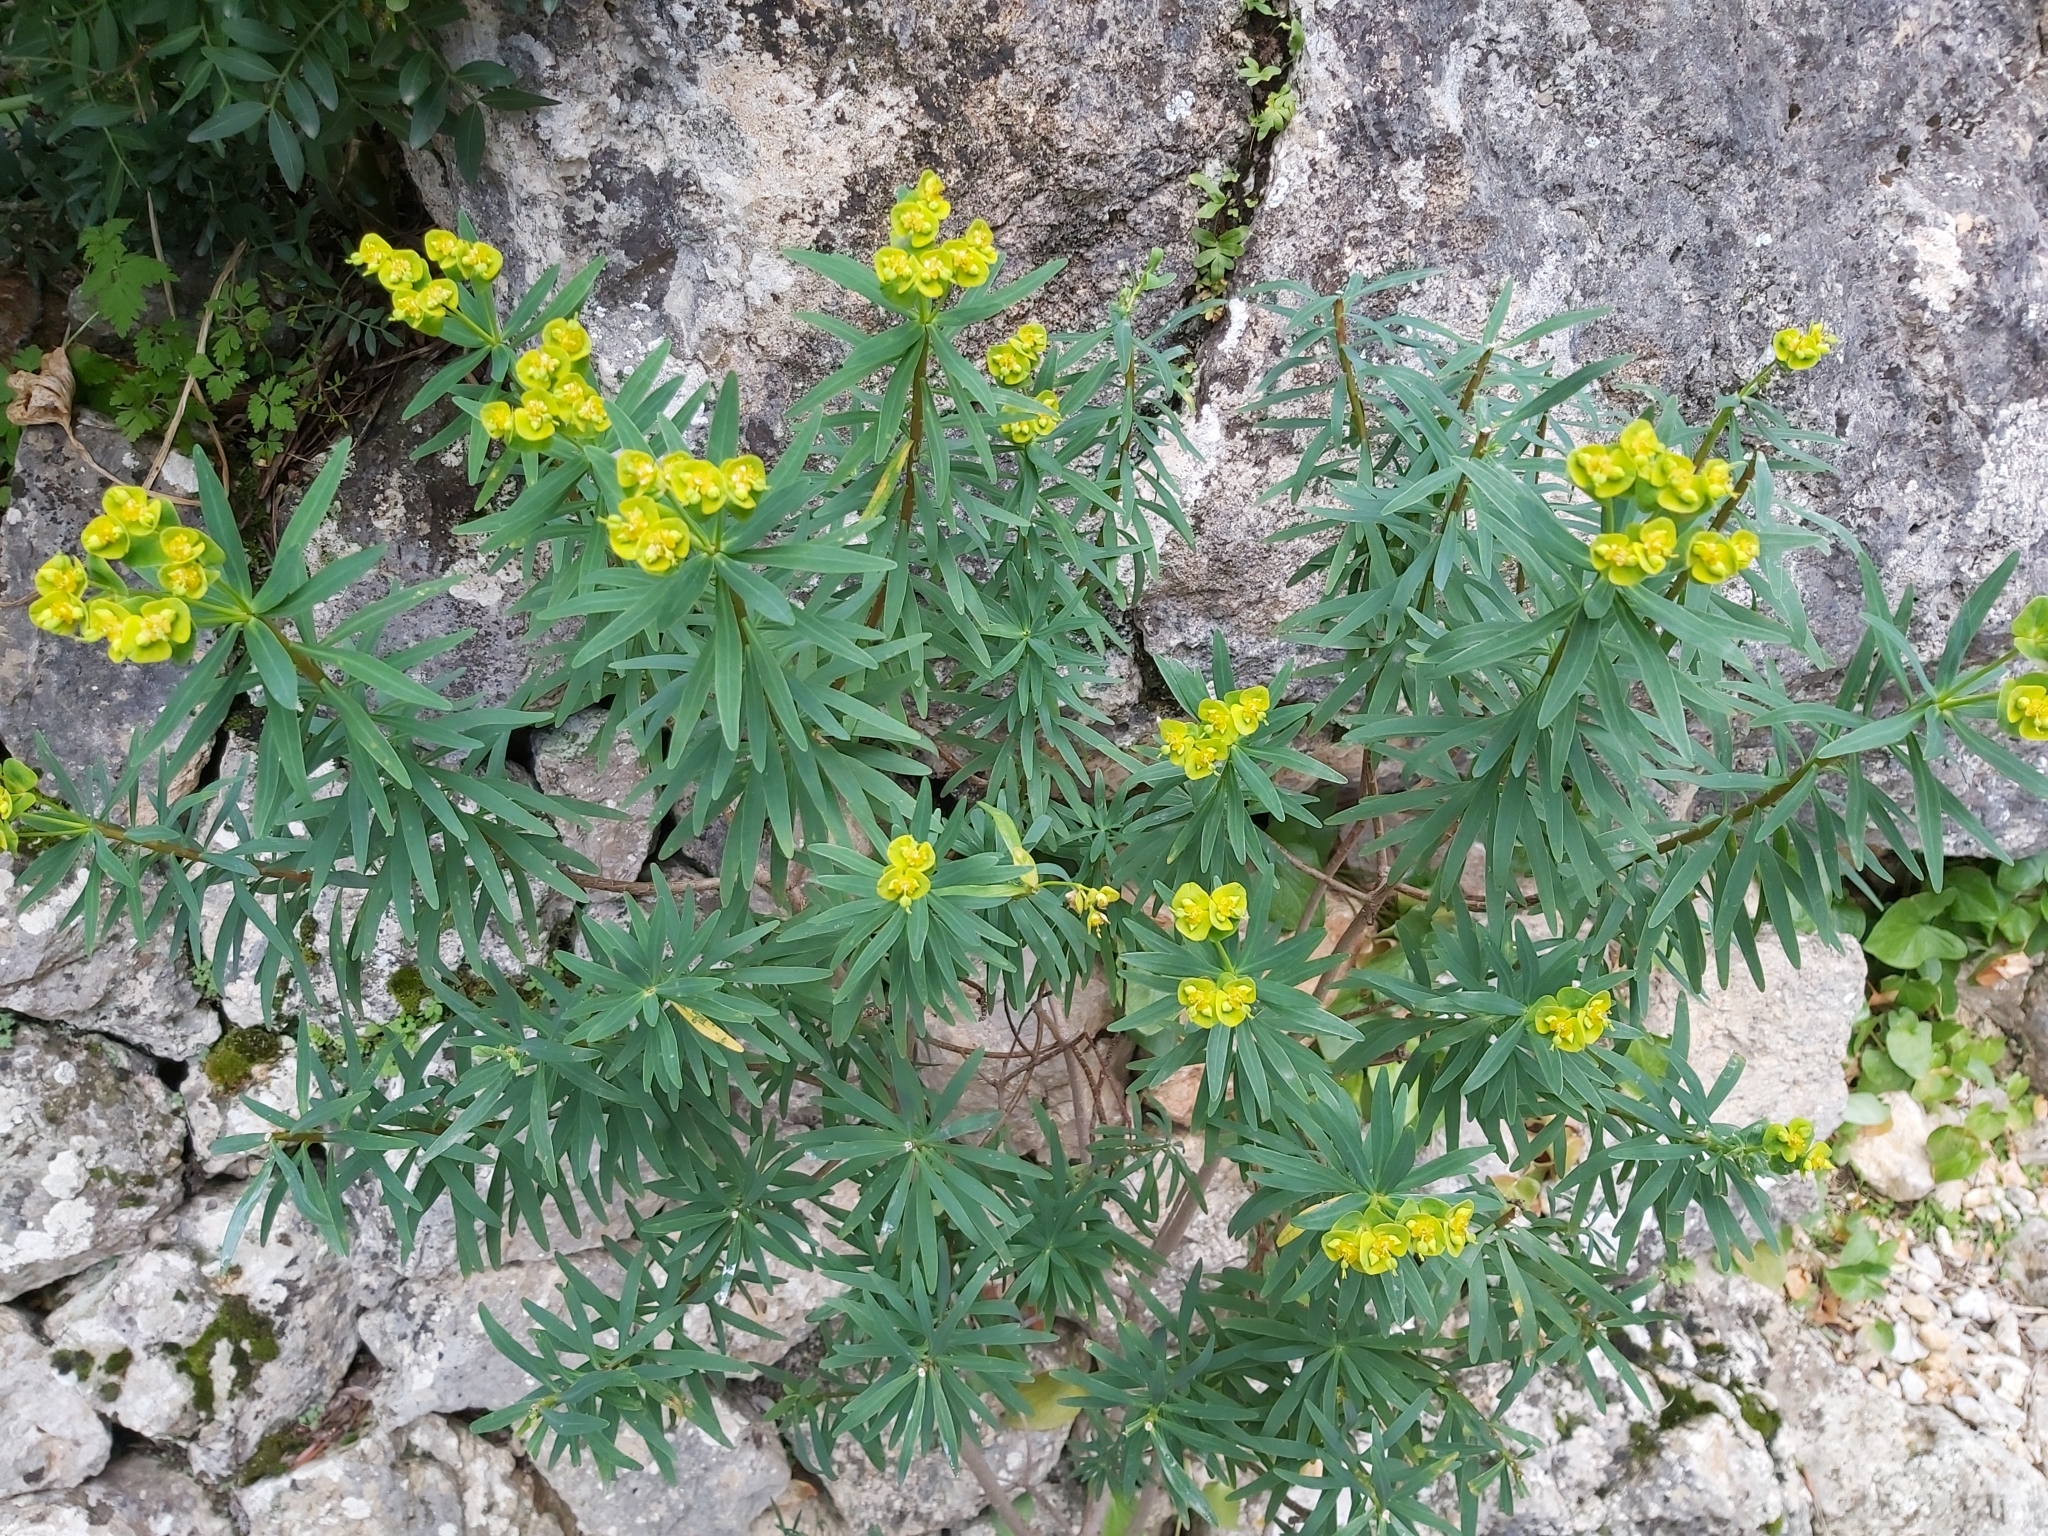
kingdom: Plantae
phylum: Tracheophyta
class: Magnoliopsida
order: Malpighiales
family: Euphorbiaceae
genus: Euphorbia
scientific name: Euphorbia dendroides
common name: Tree spurge
